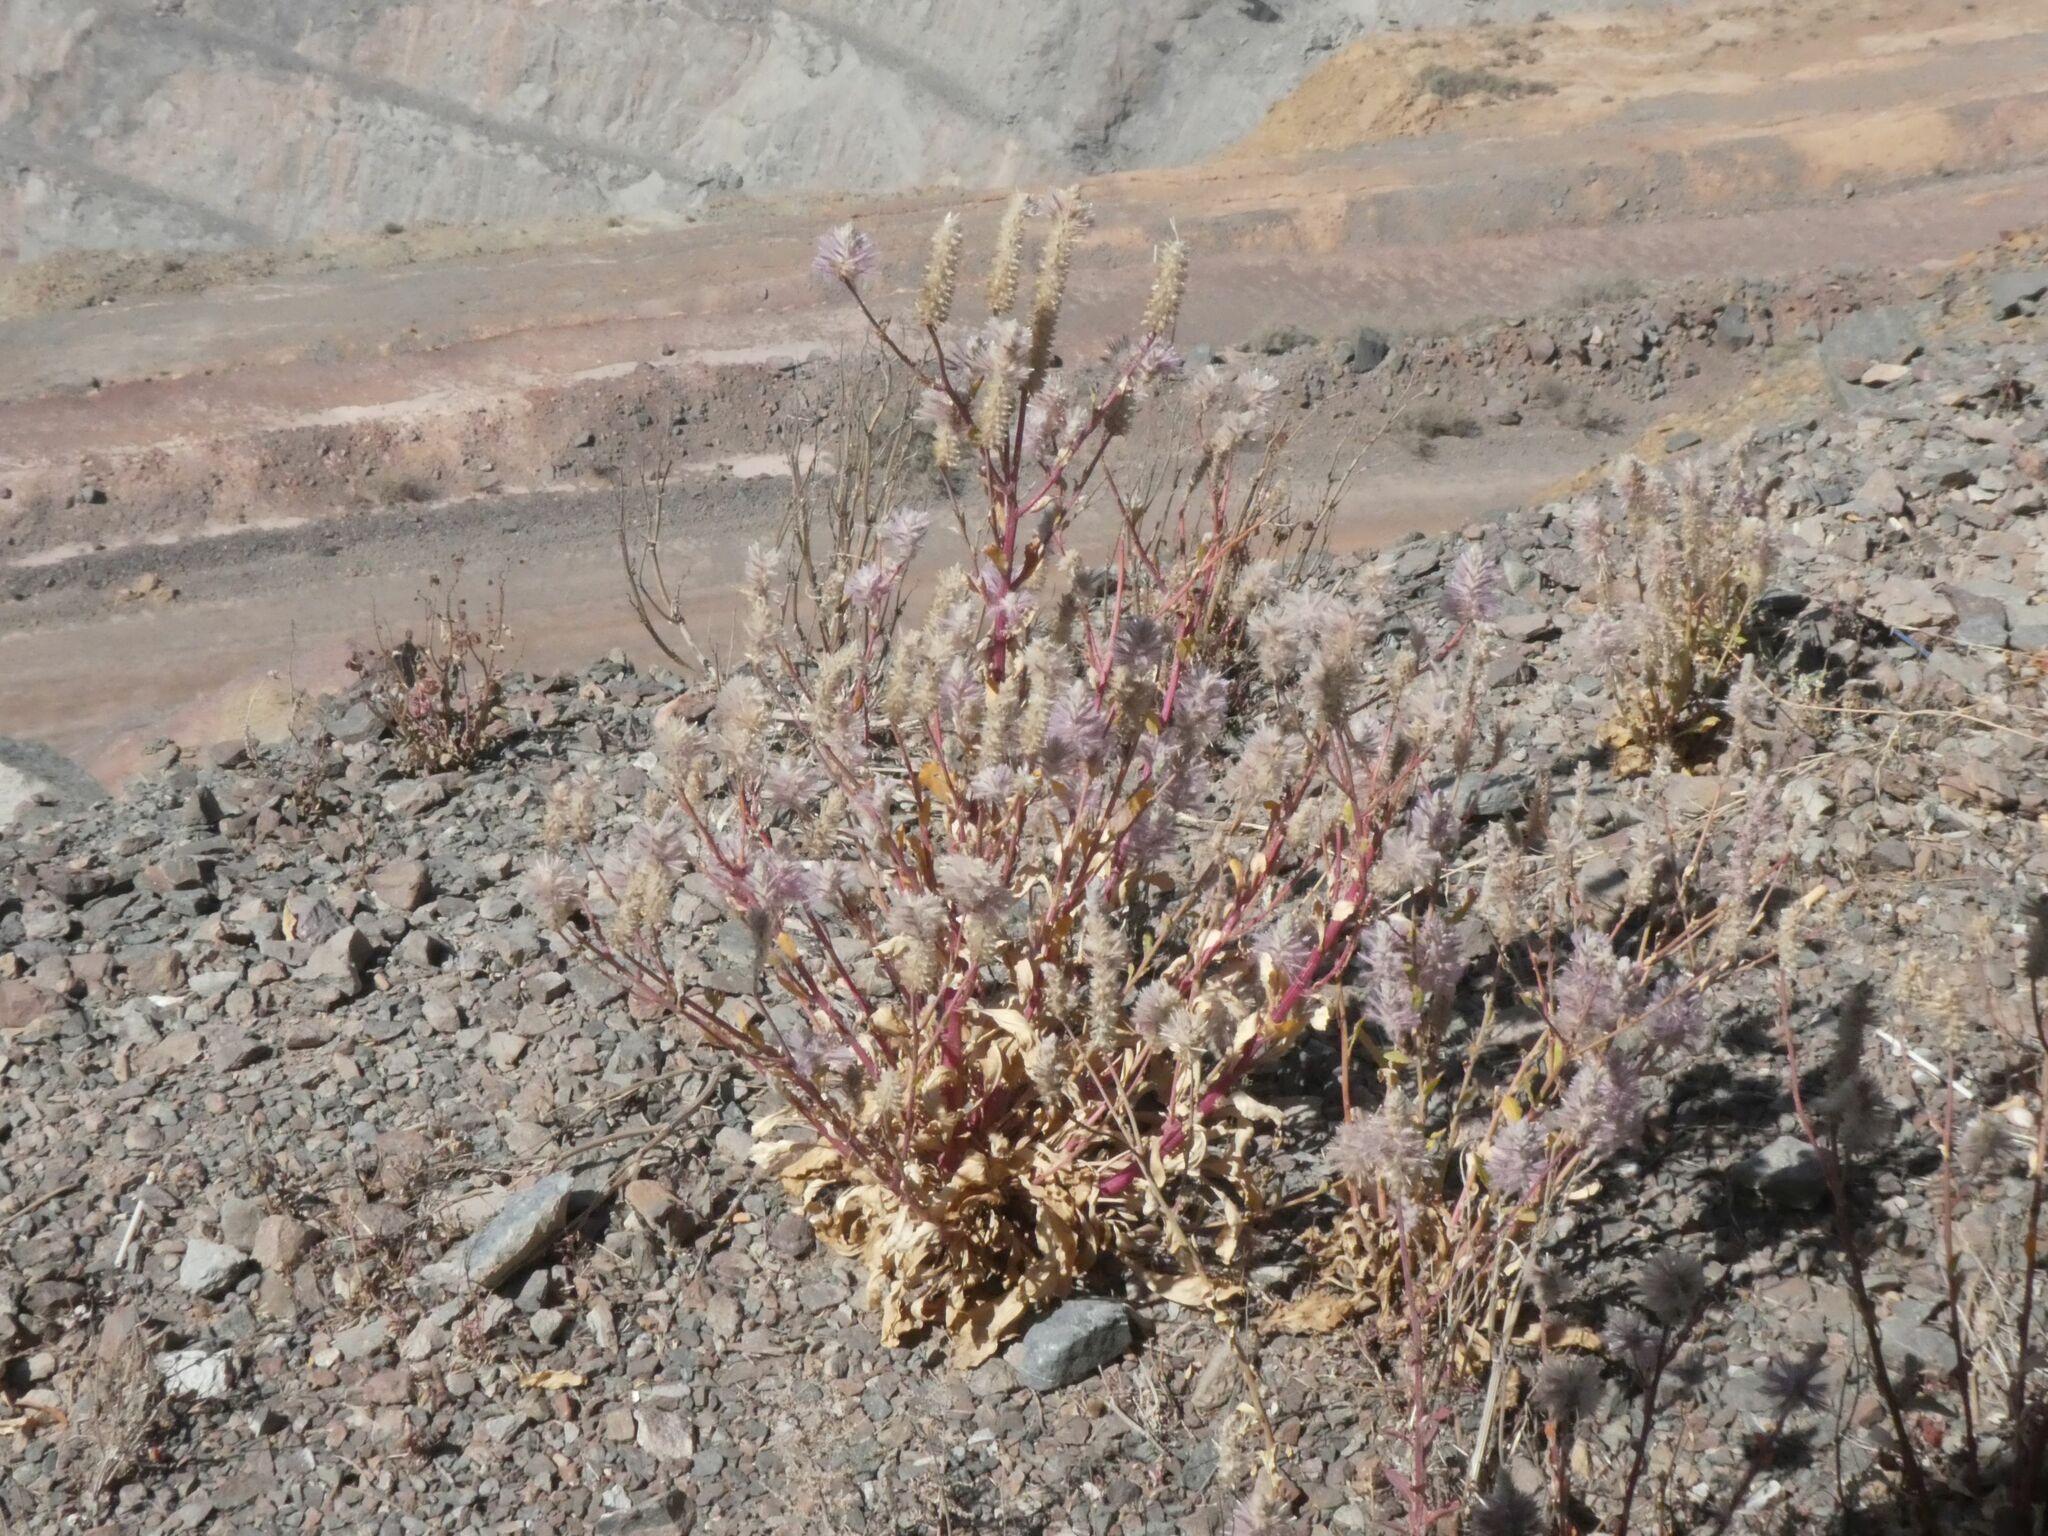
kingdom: Plantae
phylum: Tracheophyta
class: Magnoliopsida
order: Caryophyllales
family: Amaranthaceae
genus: Ptilotus
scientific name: Ptilotus exaltatus
